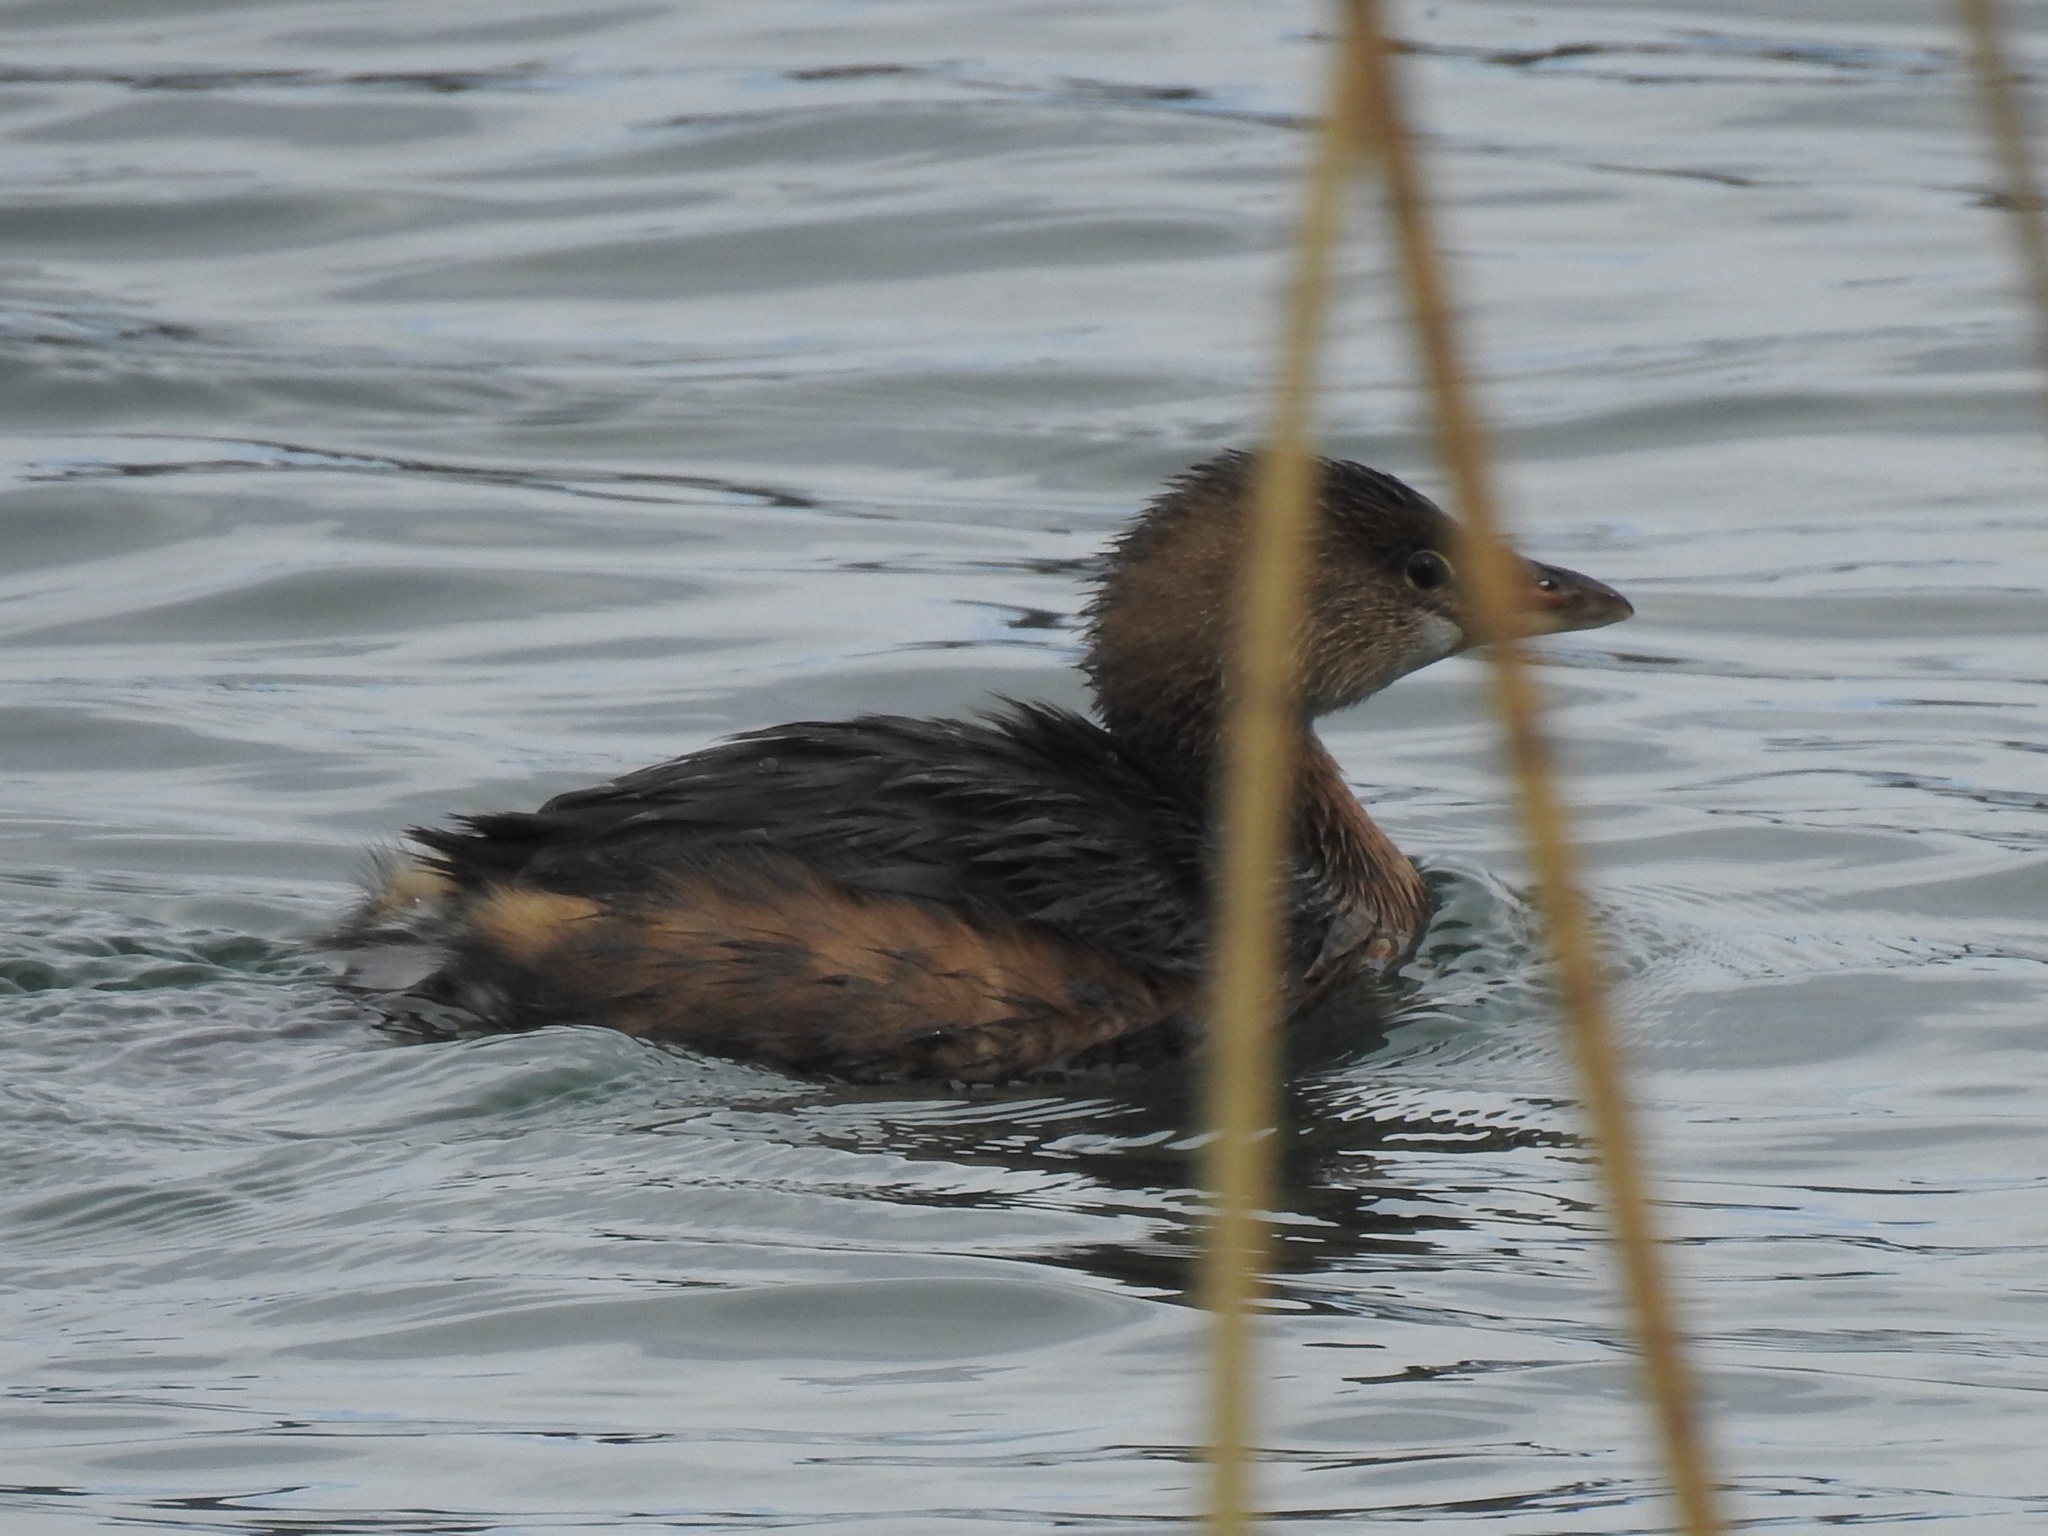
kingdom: Animalia
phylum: Chordata
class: Aves
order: Podicipediformes
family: Podicipedidae
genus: Podilymbus
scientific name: Podilymbus podiceps
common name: Pied-billed grebe
